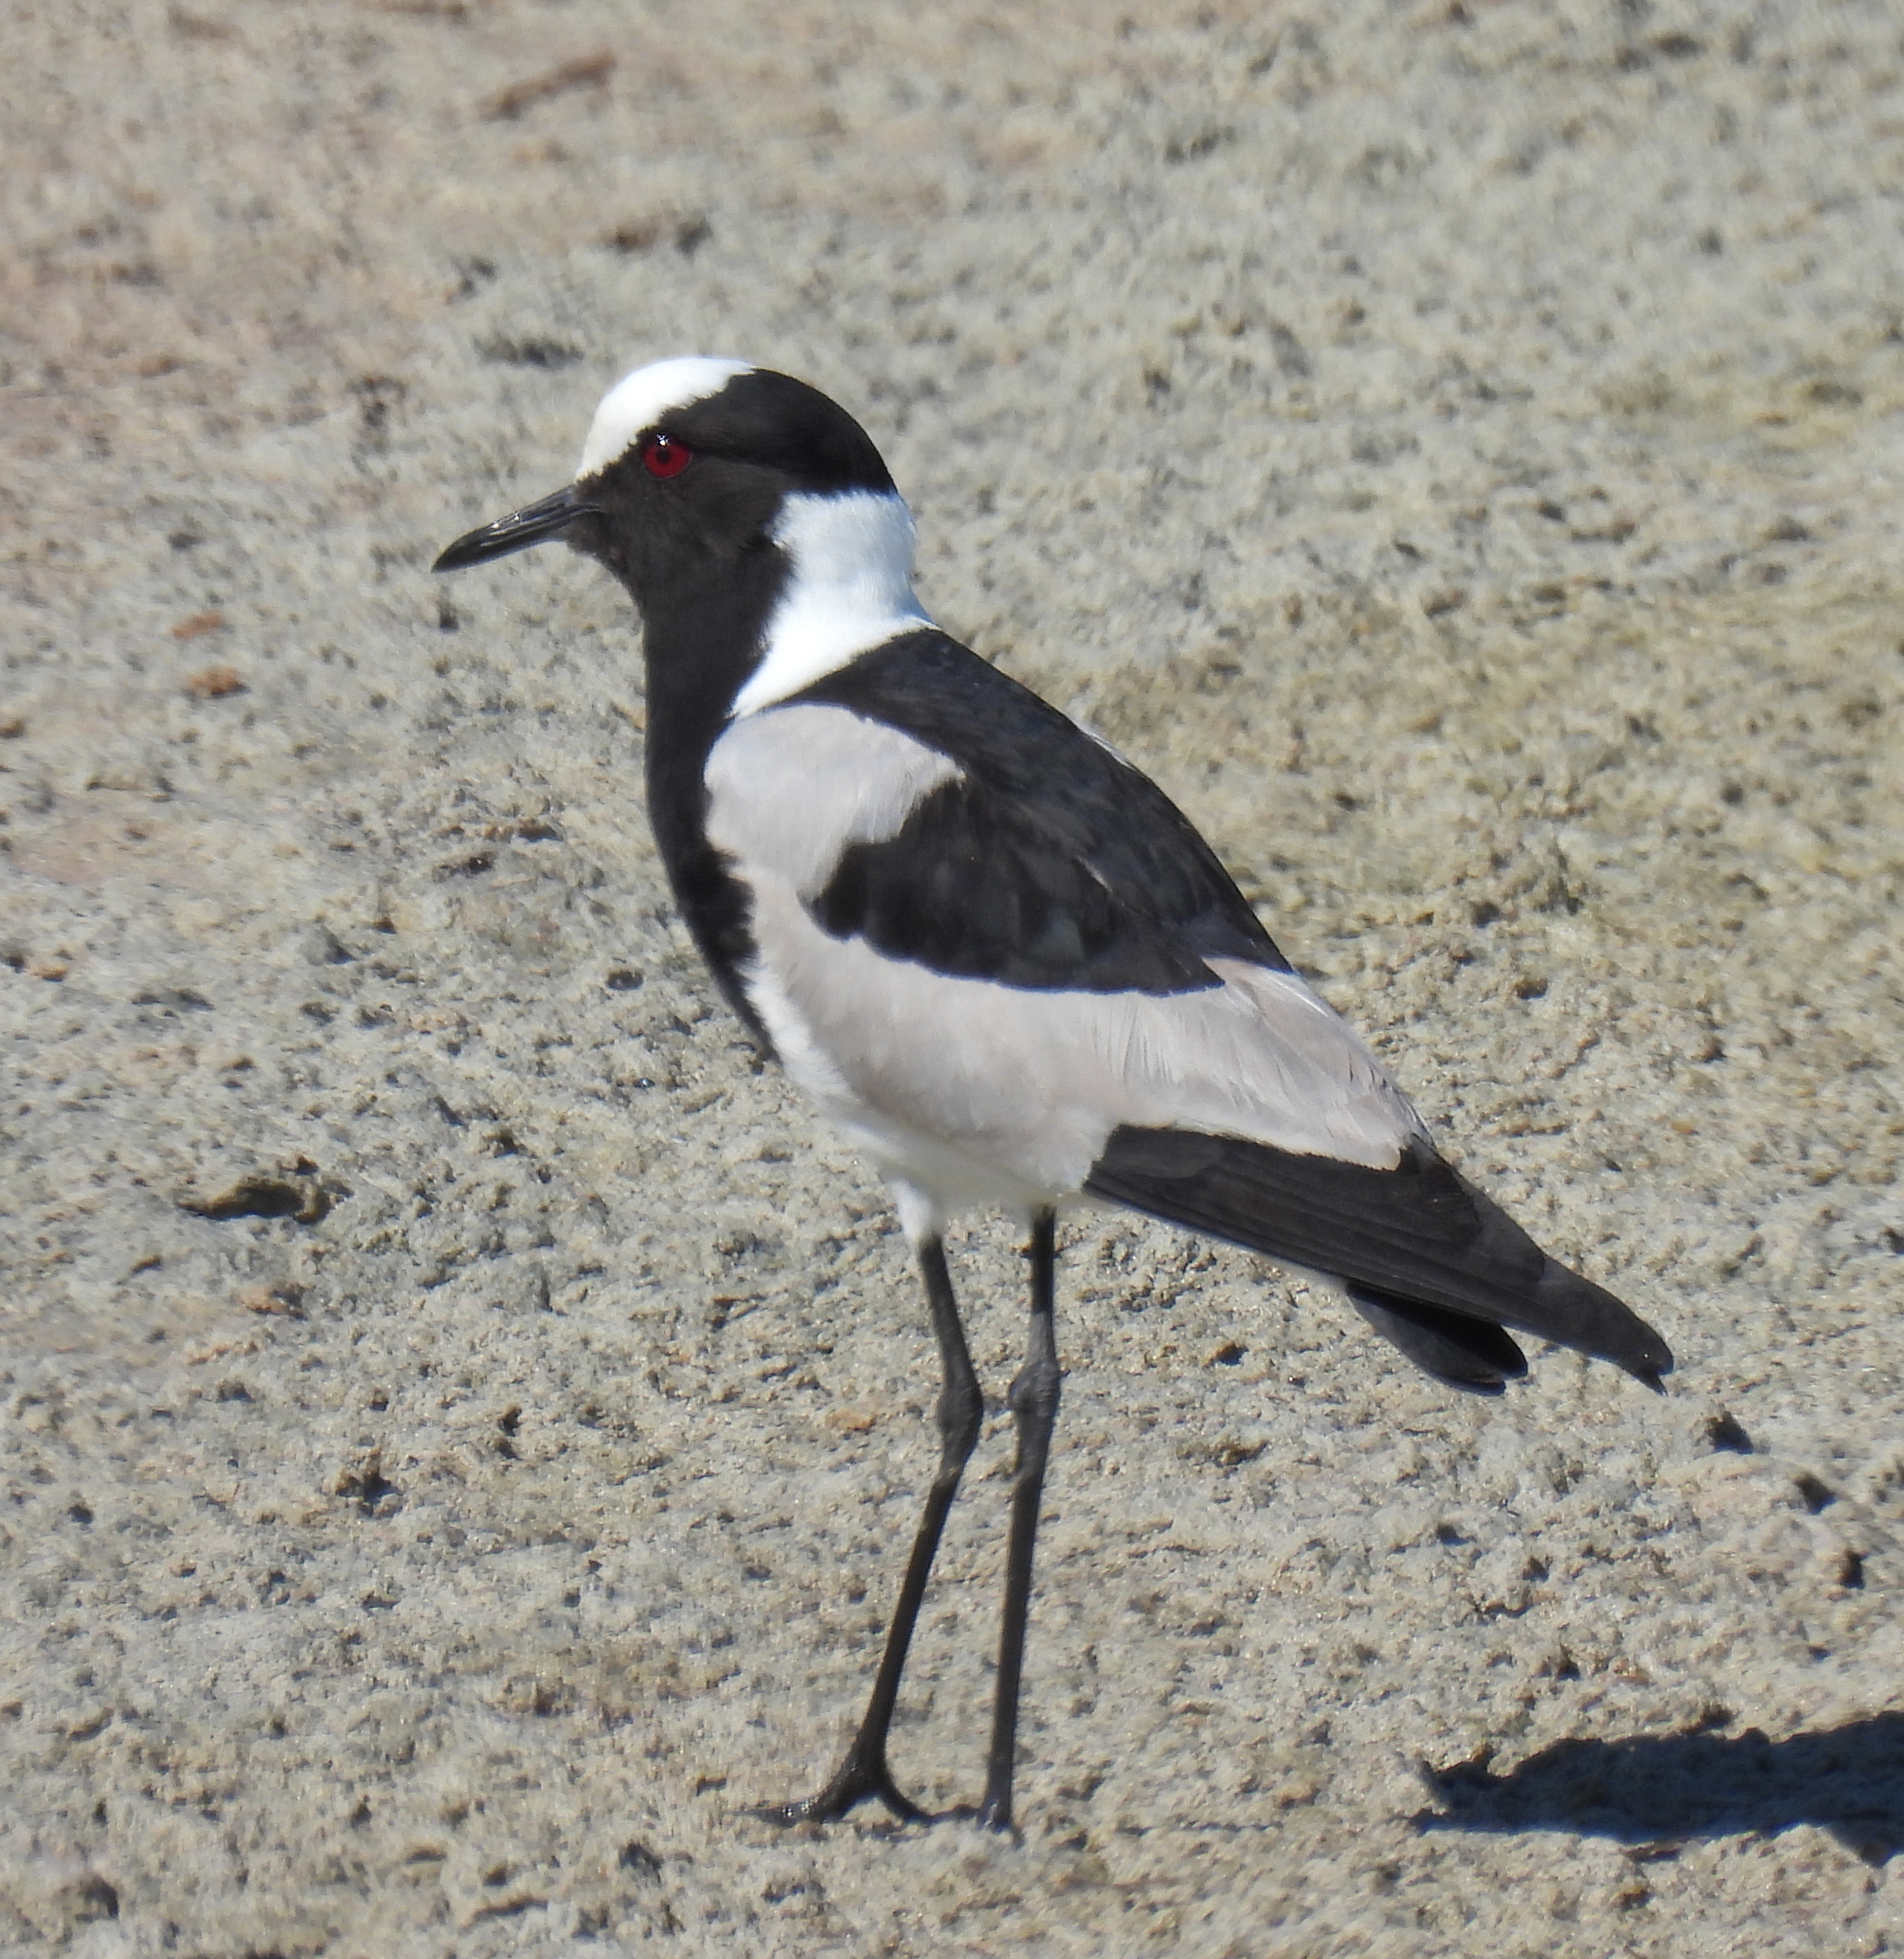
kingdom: Animalia
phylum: Chordata
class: Aves
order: Charadriiformes
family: Charadriidae
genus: Vanellus
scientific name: Vanellus armatus
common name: Blacksmith lapwing
